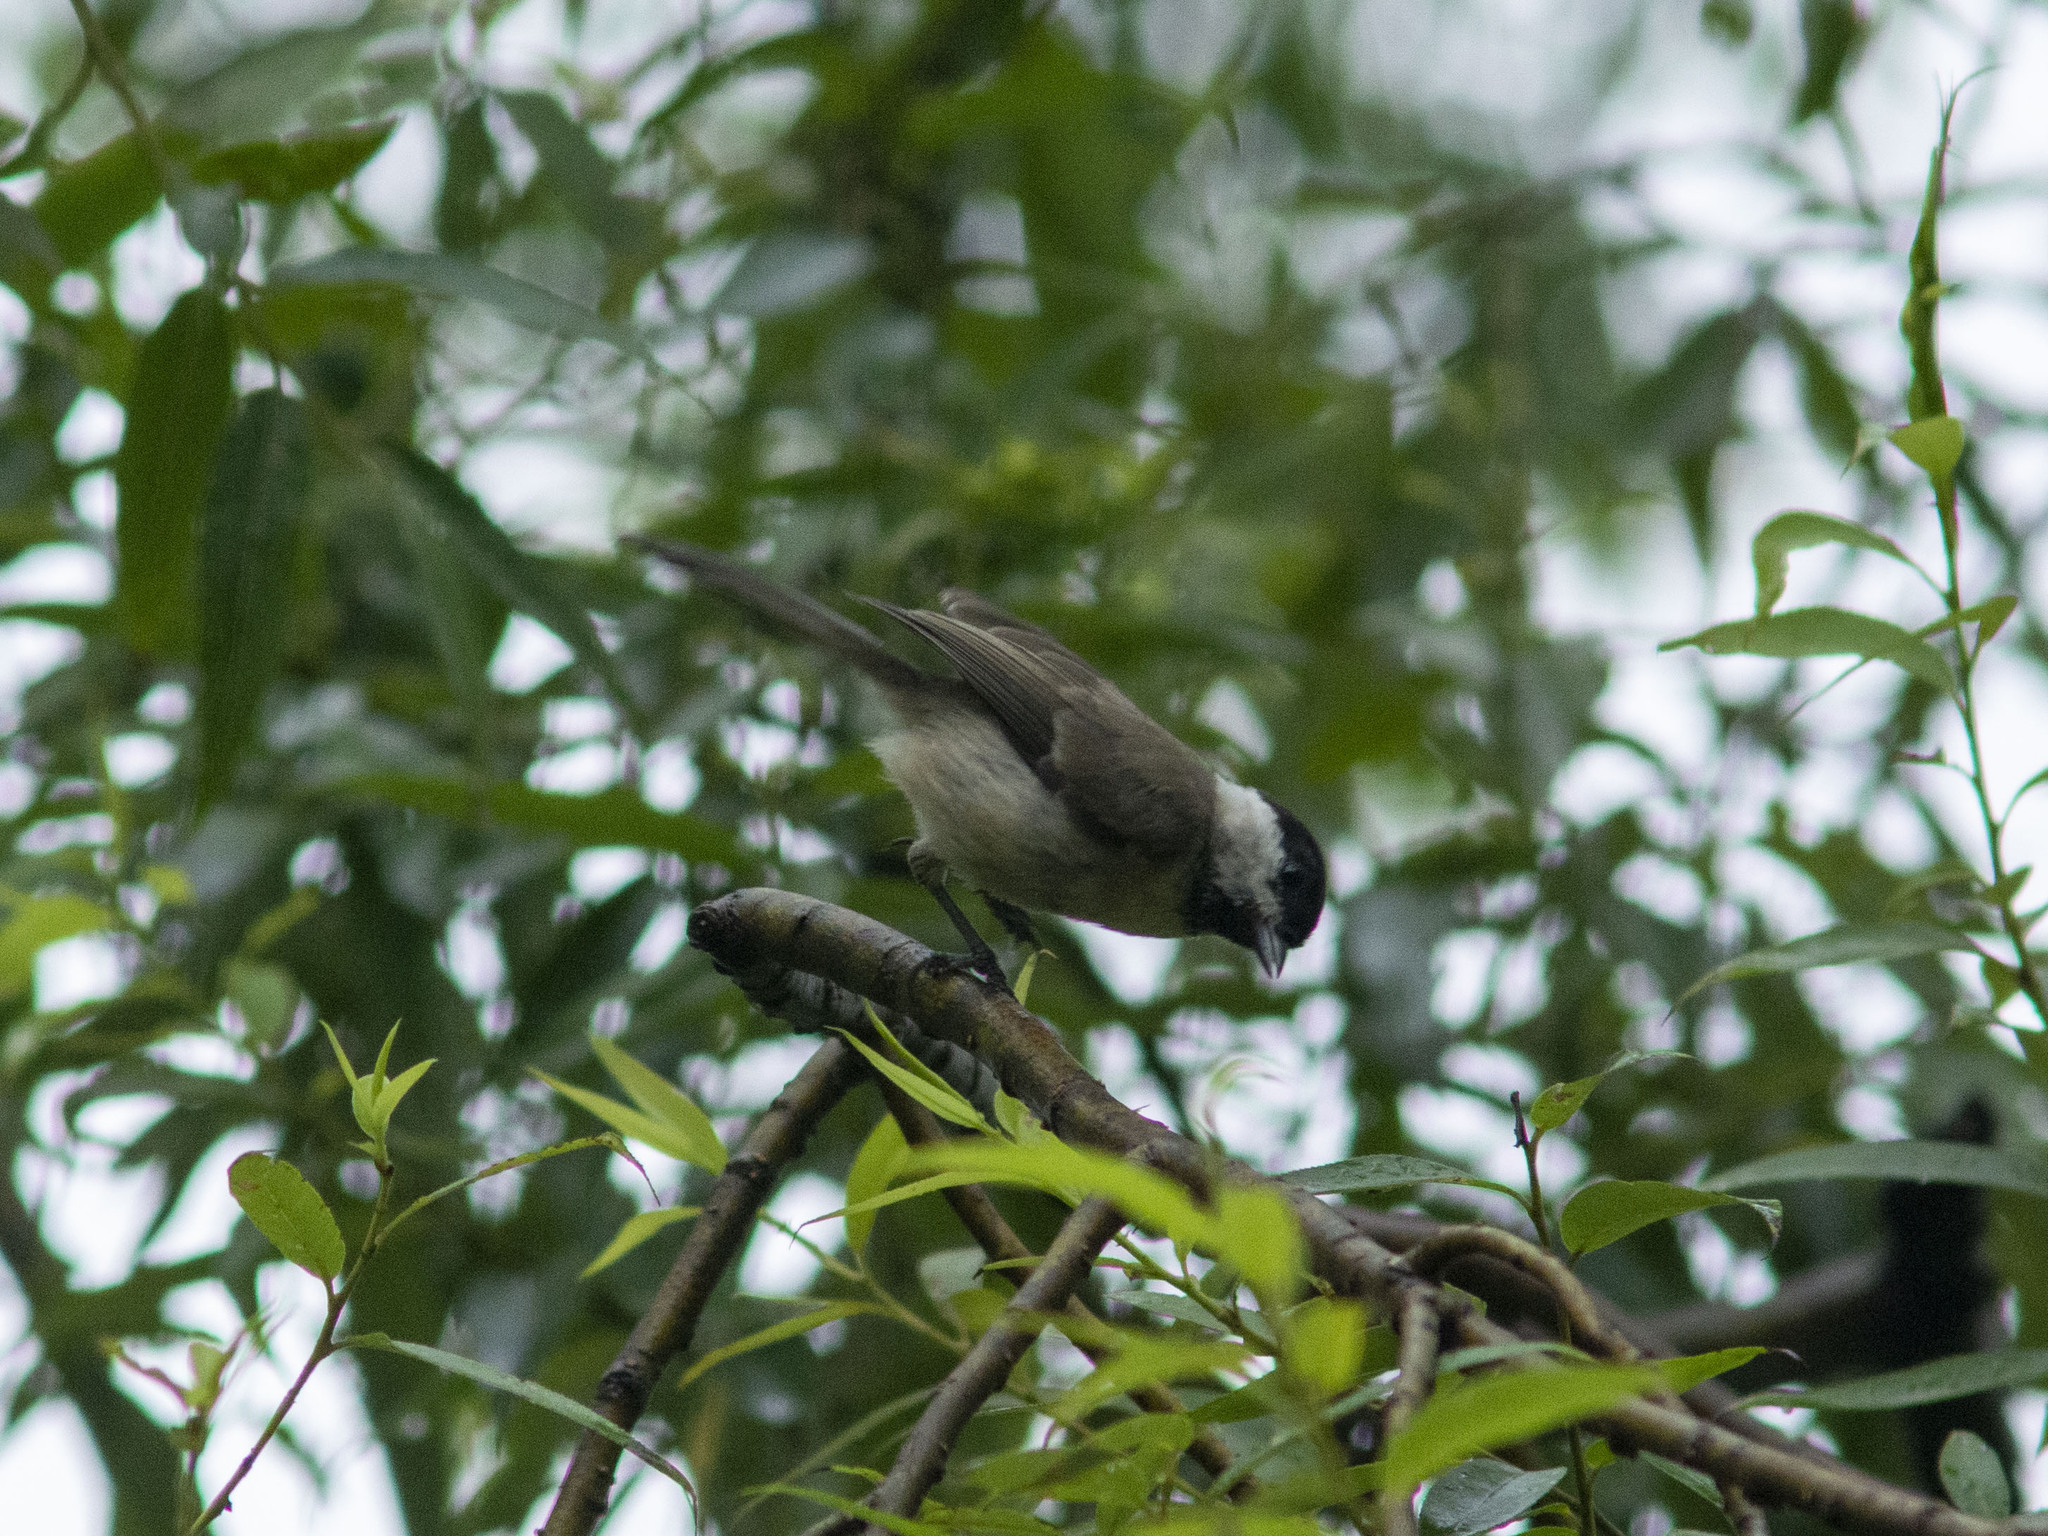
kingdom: Animalia
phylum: Chordata
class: Aves
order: Passeriformes
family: Paridae
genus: Poecile
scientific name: Poecile palustris
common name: Marsh tit
